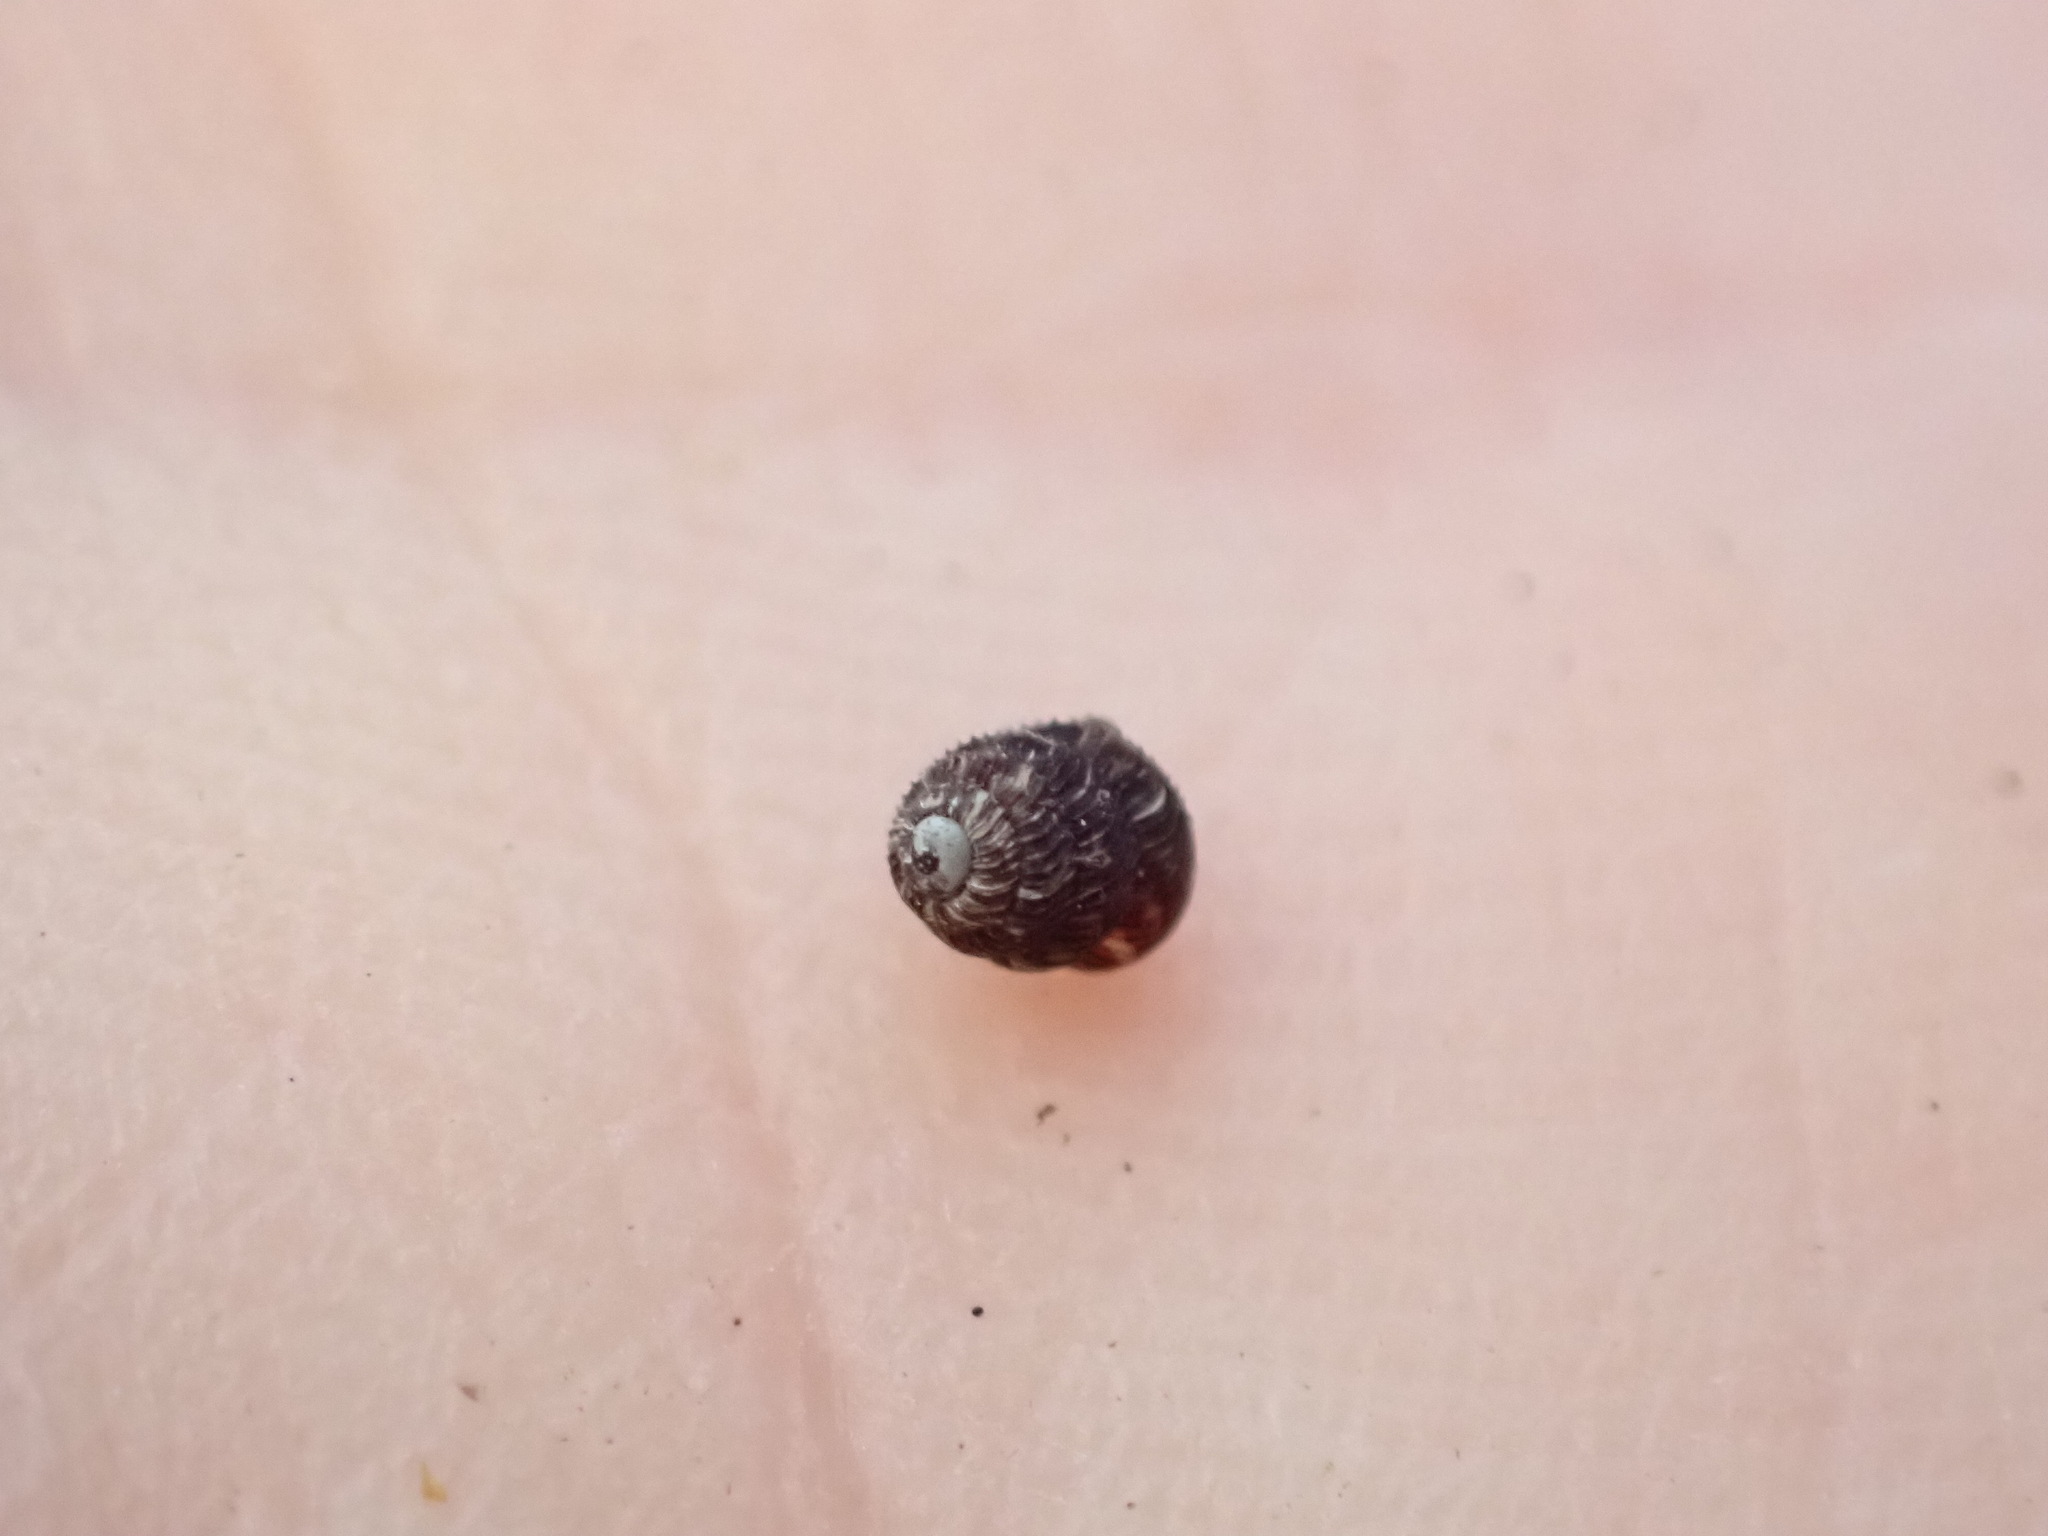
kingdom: Animalia
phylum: Mollusca
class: Gastropoda
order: Stylommatophora
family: Charopidae
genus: Phenacharopa
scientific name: Phenacharopa novoseelandica
